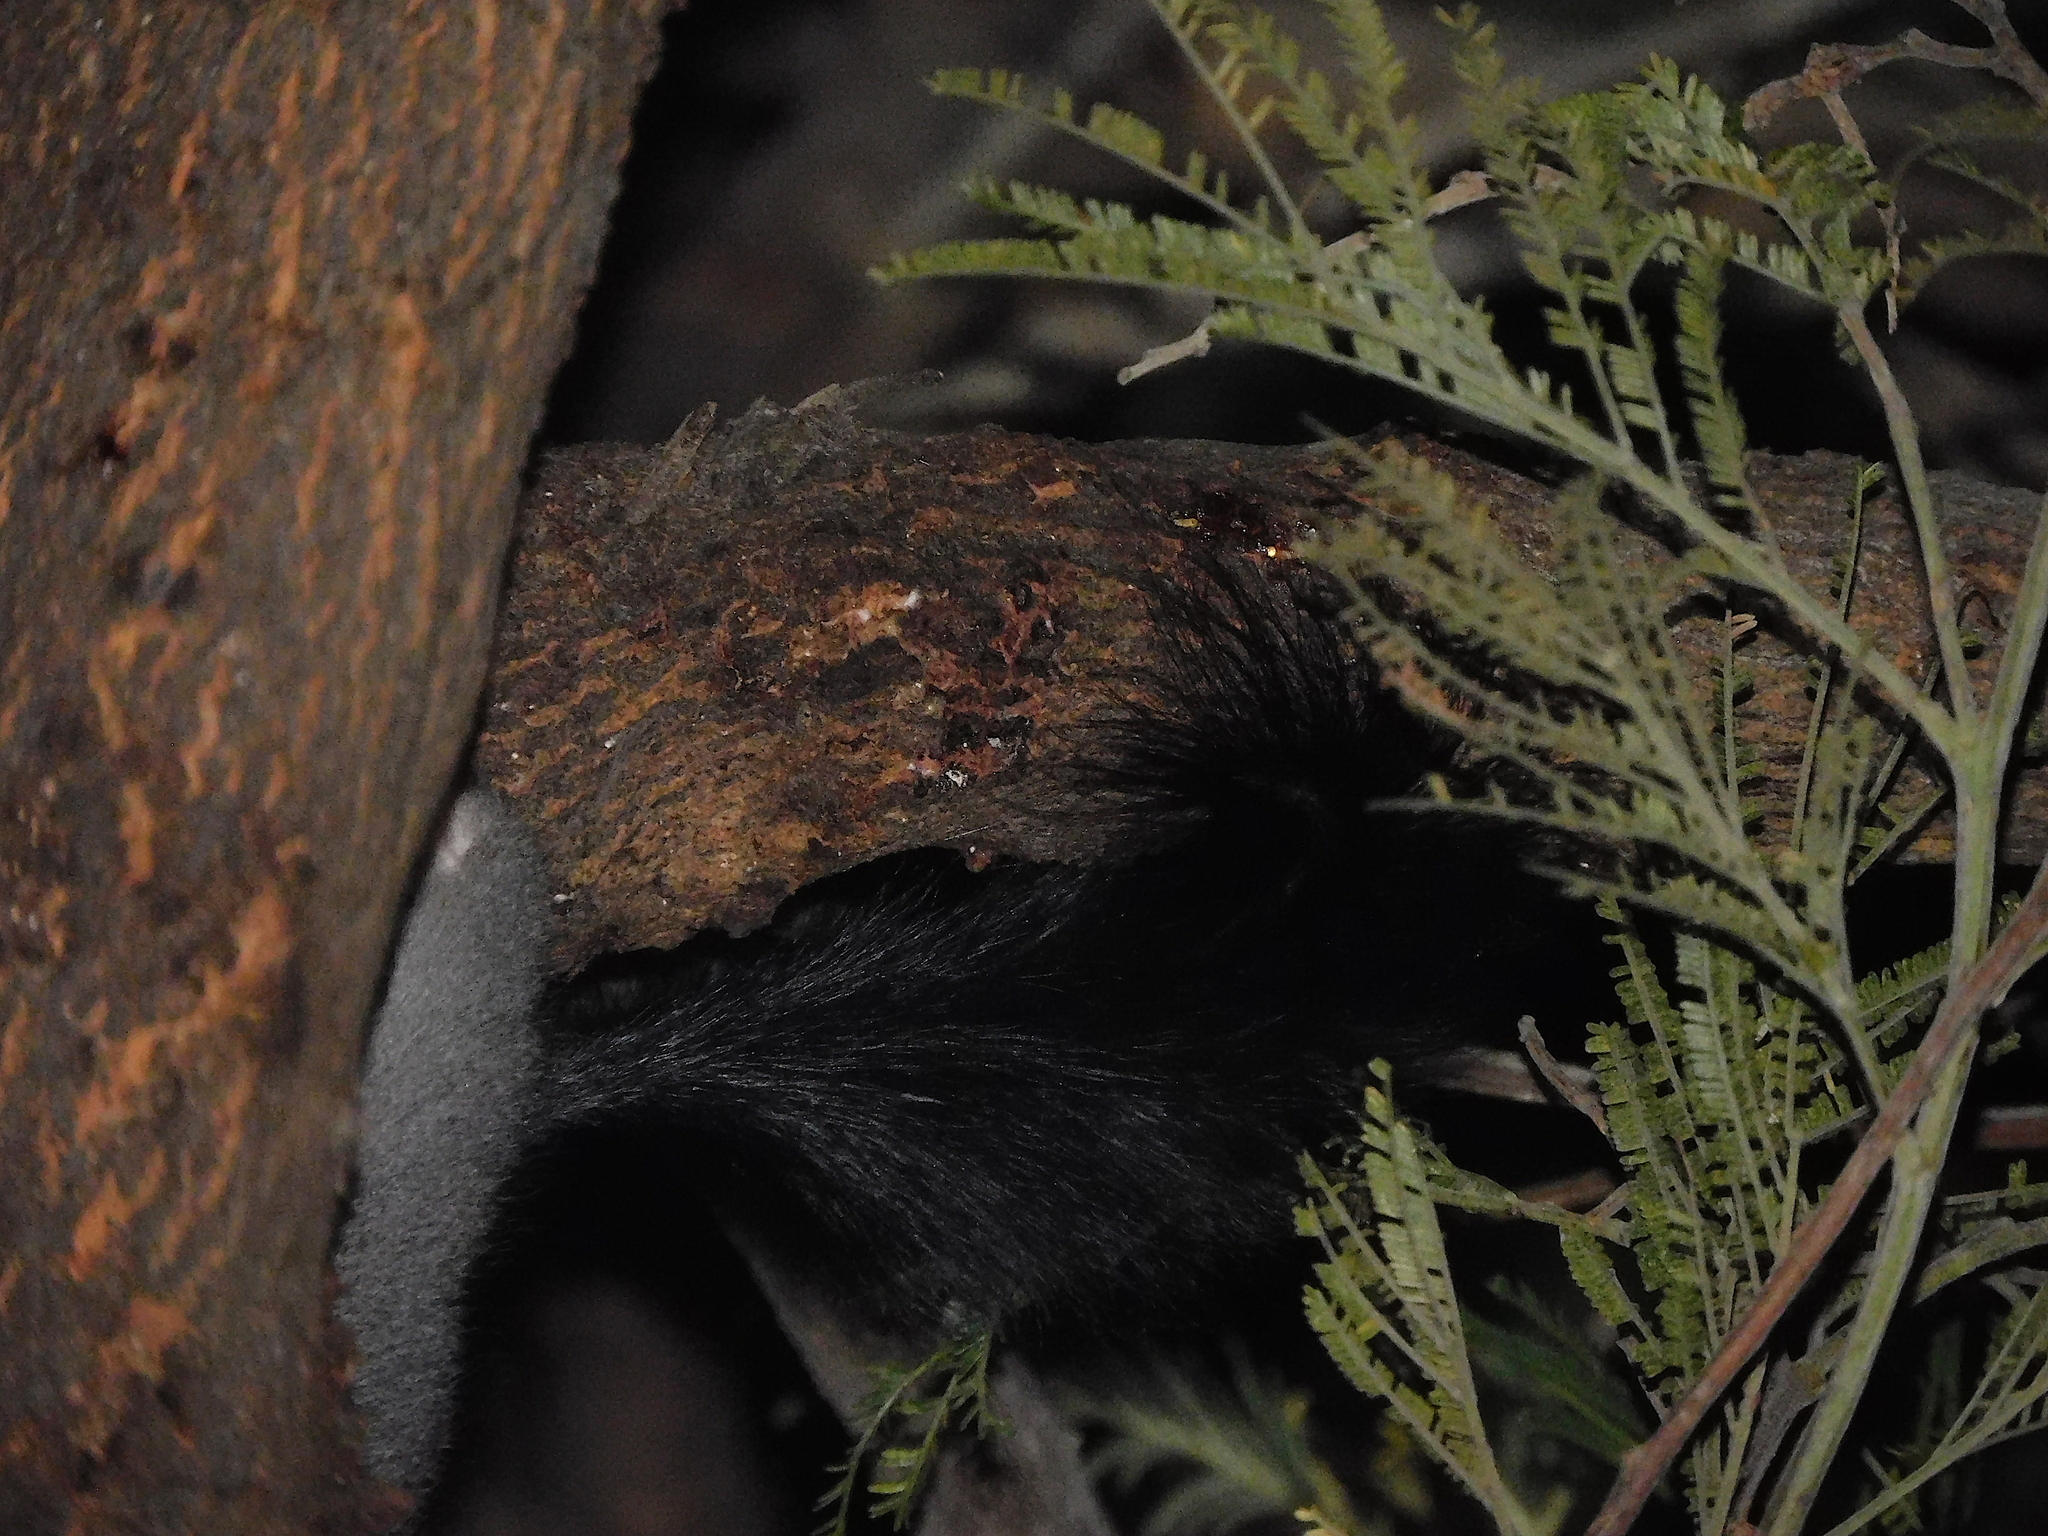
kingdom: Animalia
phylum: Chordata
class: Mammalia
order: Dasyuromorphia
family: Dasyuridae
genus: Phascogale
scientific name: Phascogale tapoatafa
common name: Brush-tailed phascogale
